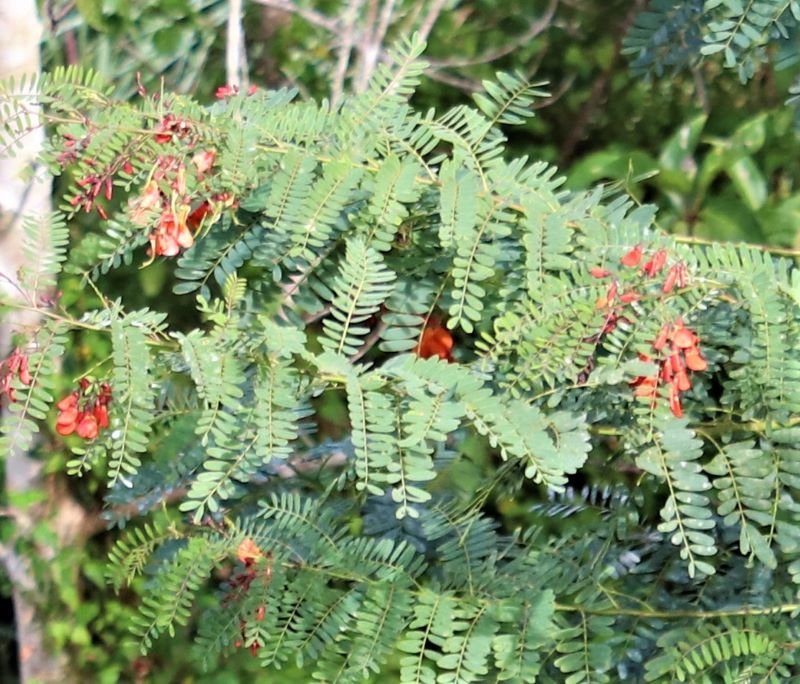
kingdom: Plantae
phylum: Tracheophyta
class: Magnoliopsida
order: Fabales
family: Fabaceae
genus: Sesbania
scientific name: Sesbania punicea
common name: Rattlebox
